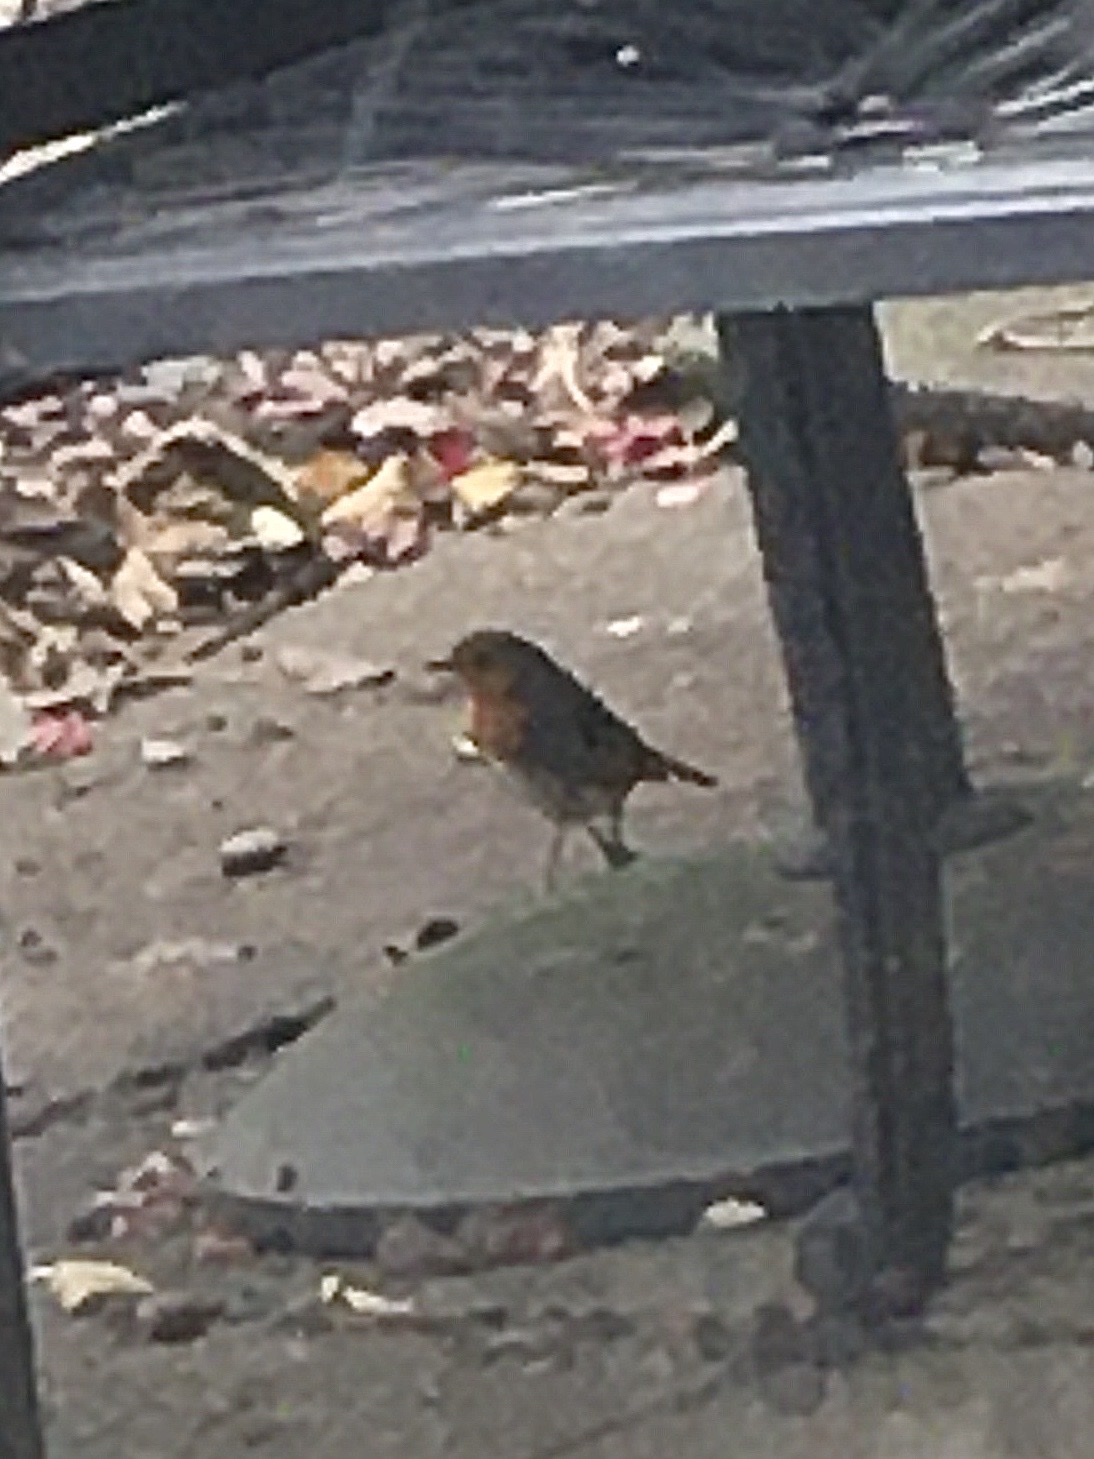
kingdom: Animalia
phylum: Chordata
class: Aves
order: Passeriformes
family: Muscicapidae
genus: Erithacus
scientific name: Erithacus rubecula
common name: European robin
